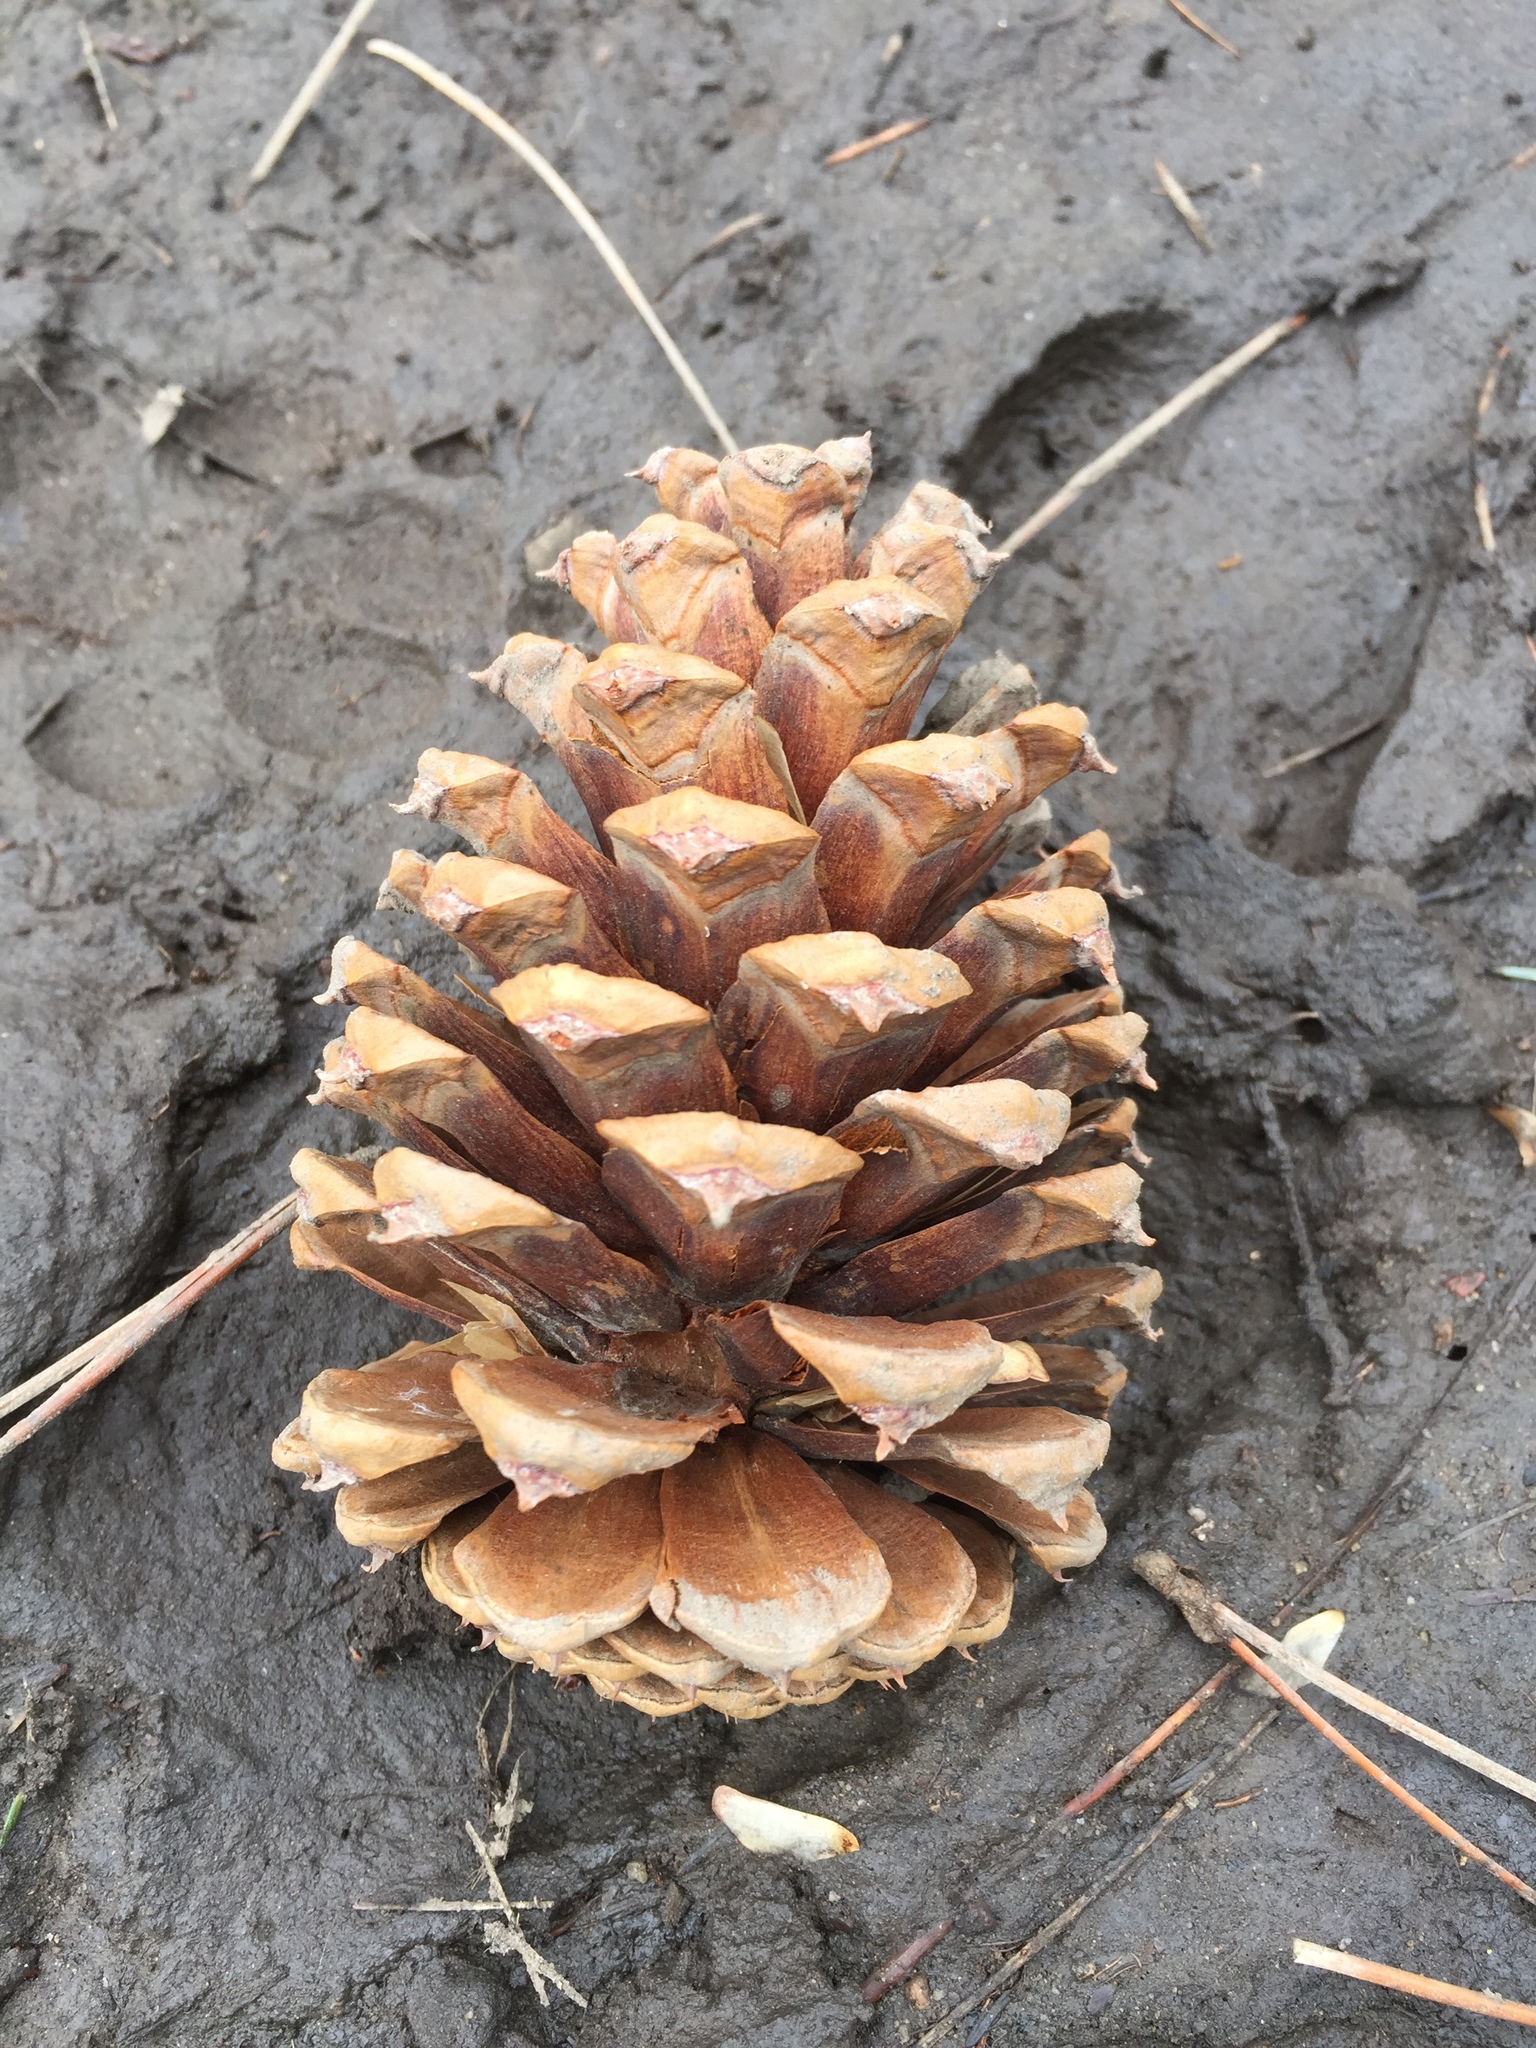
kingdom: Plantae
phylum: Tracheophyta
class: Pinopsida
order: Pinales
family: Pinaceae
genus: Pinus
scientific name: Pinus ponderosa
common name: Western yellow-pine
